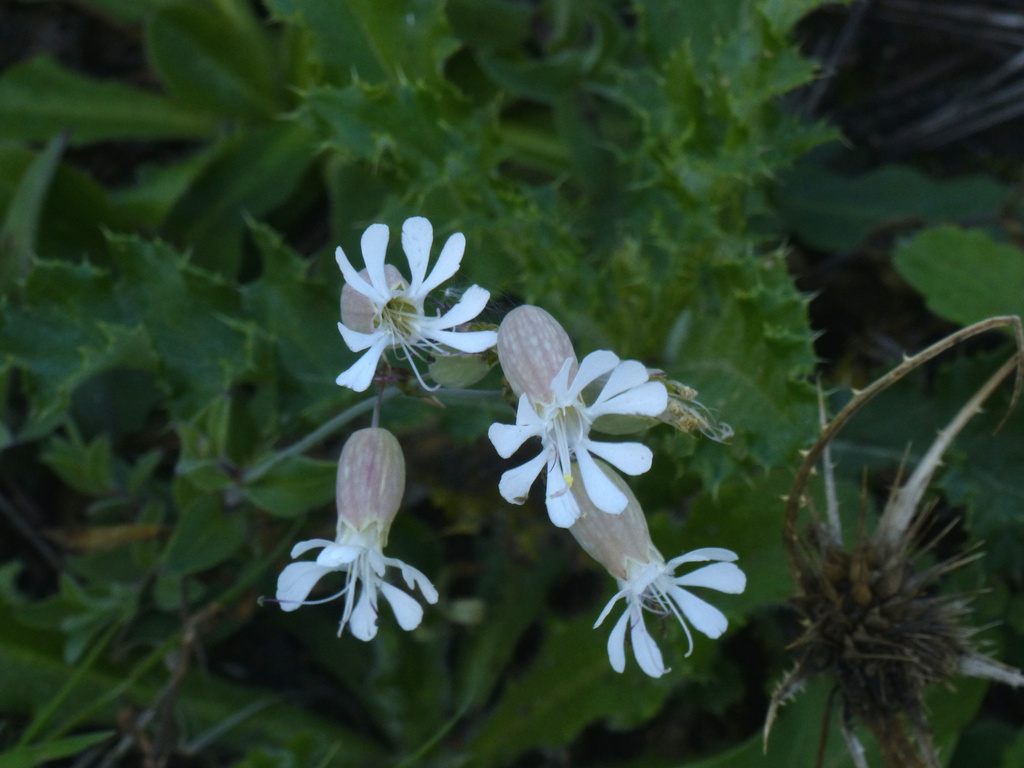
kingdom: Plantae
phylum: Tracheophyta
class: Magnoliopsida
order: Caryophyllales
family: Caryophyllaceae
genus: Silene
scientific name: Silene vulgaris
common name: Bladder campion
